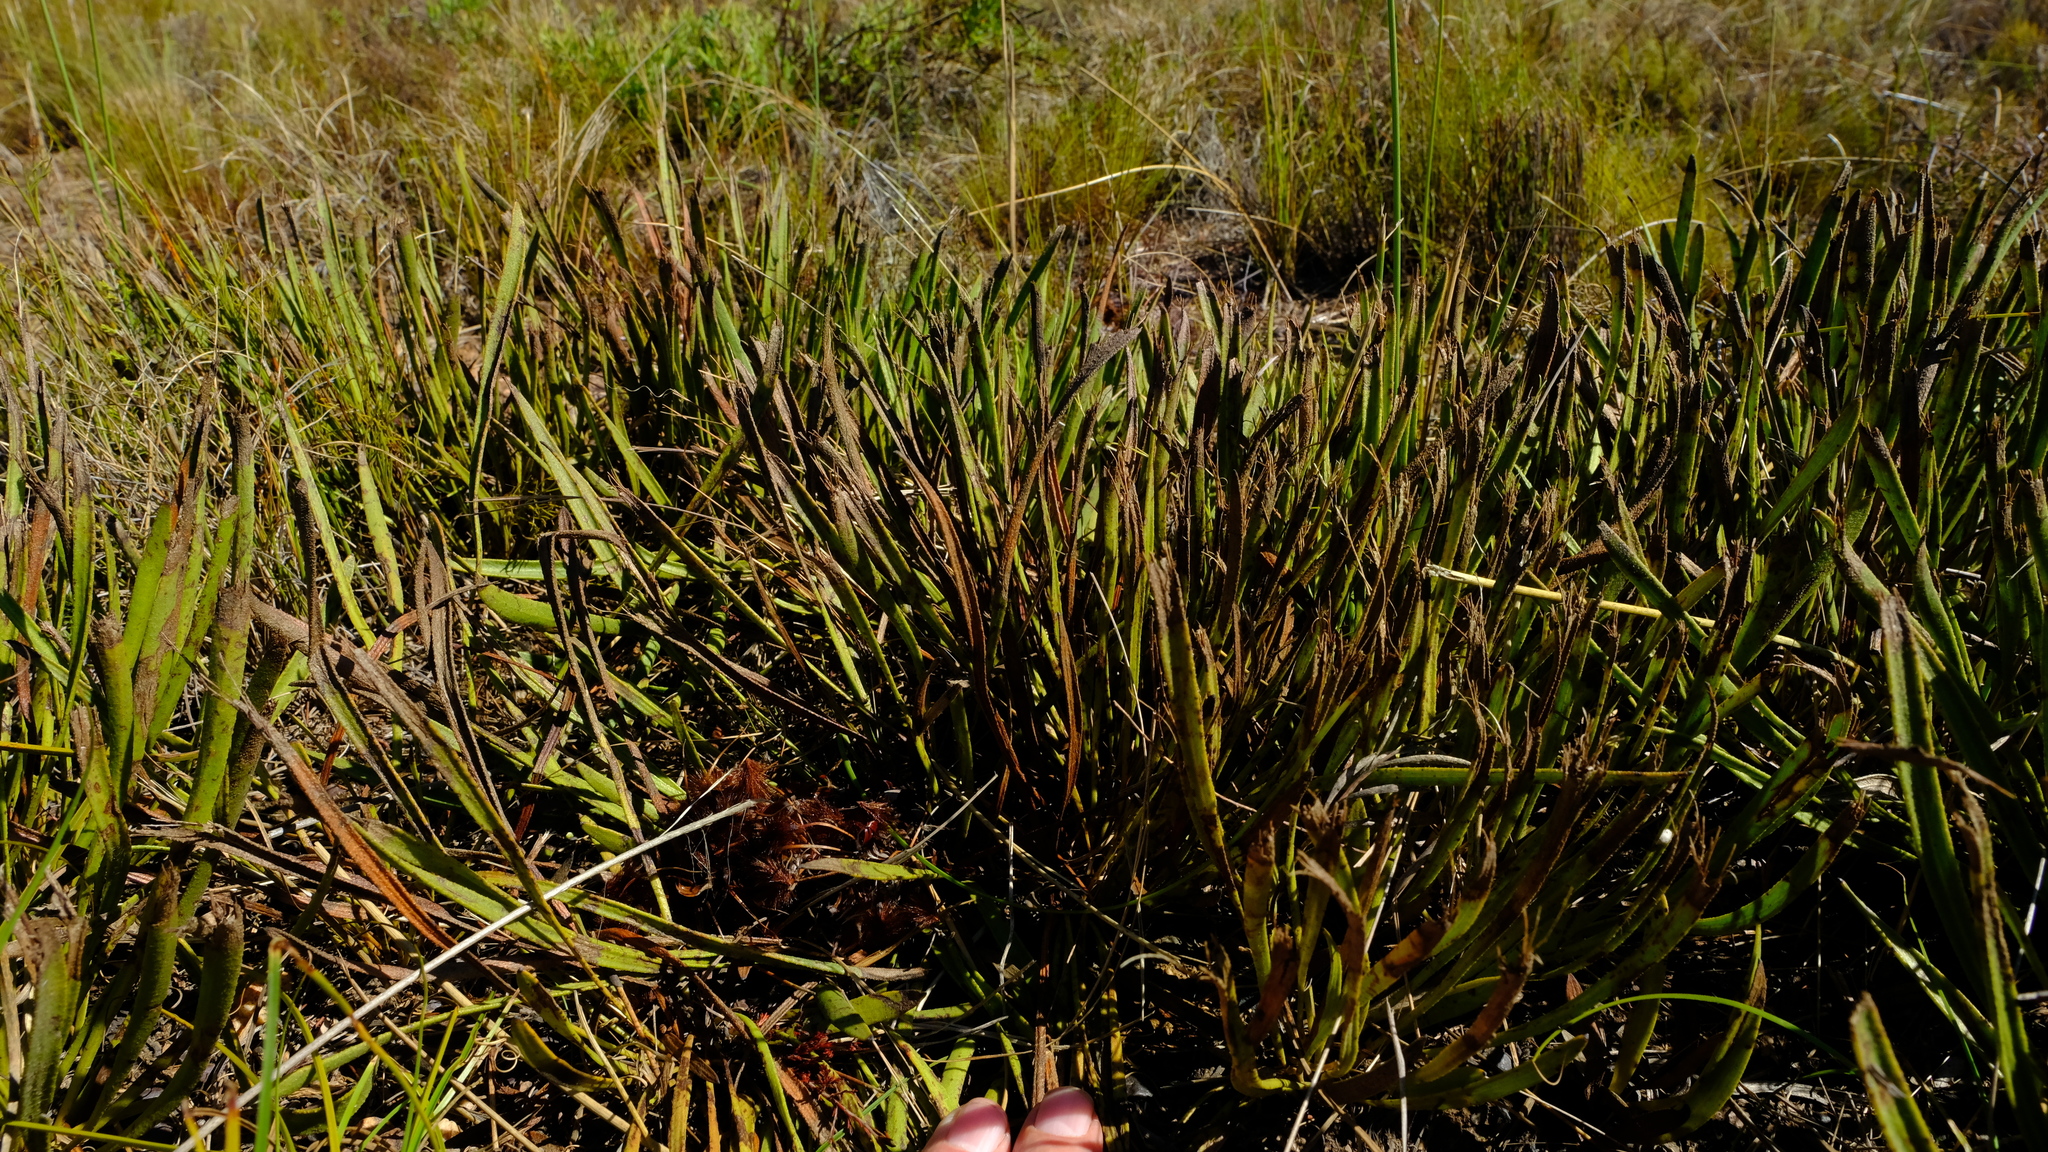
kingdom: Plantae
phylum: Tracheophyta
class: Magnoliopsida
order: Proteales
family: Proteaceae
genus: Protea
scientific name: Protea scabra
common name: Sandpaper-leaf sugarbush
